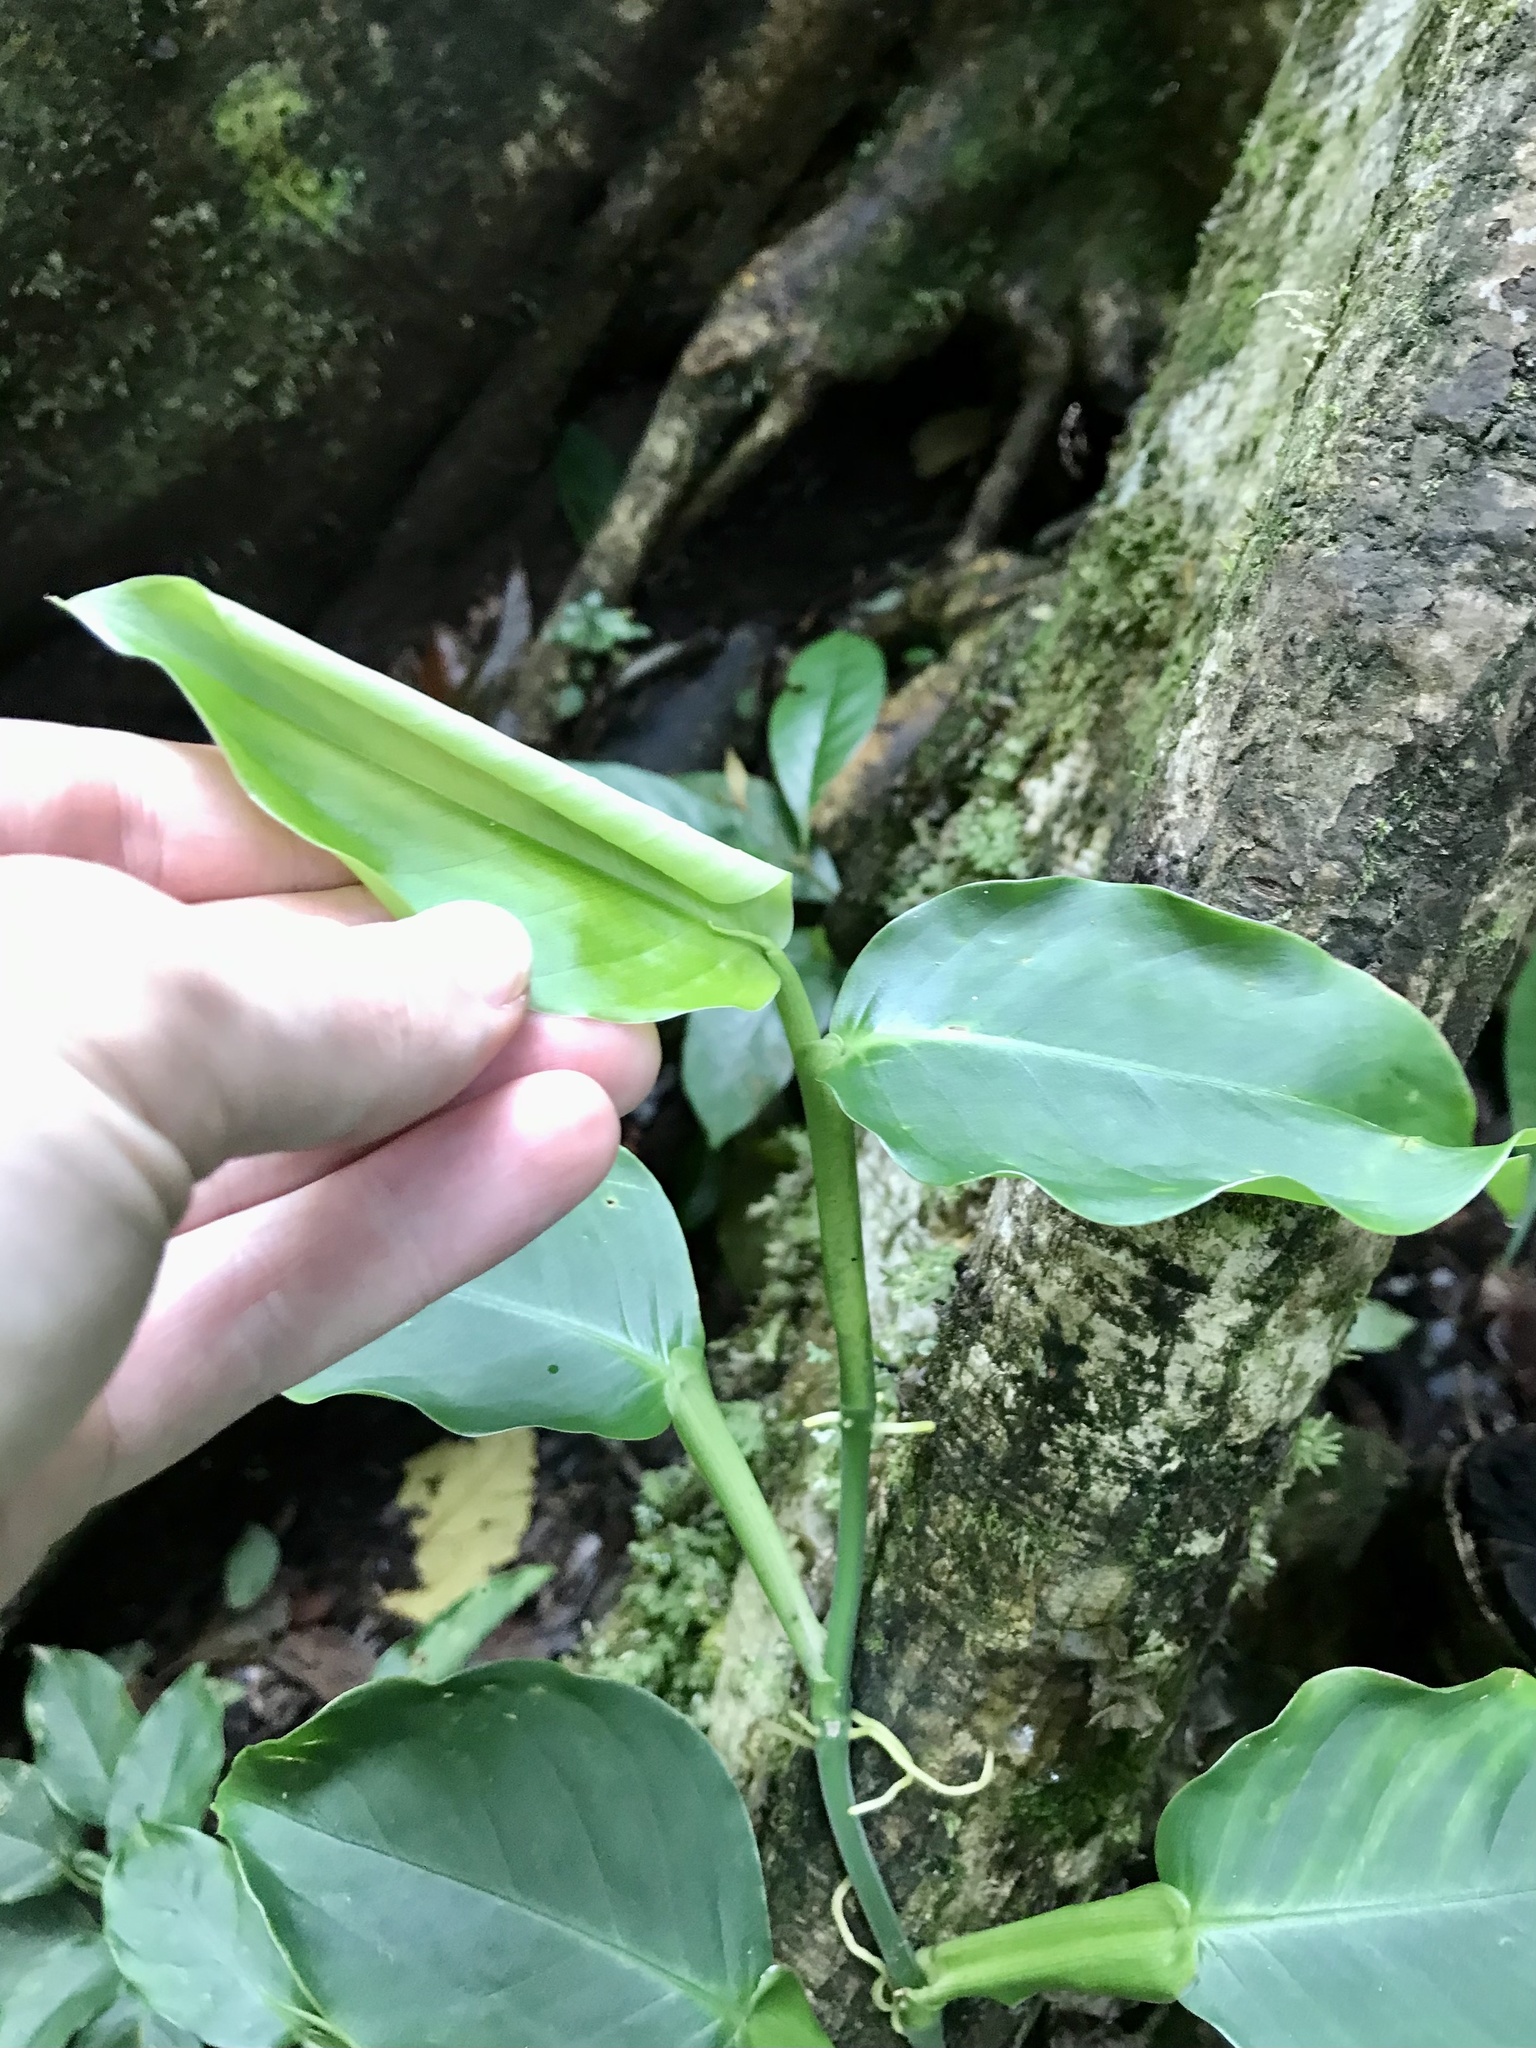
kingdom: Plantae
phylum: Tracheophyta
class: Liliopsida
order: Alismatales
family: Araceae
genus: Philodendron
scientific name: Philodendron aurantiifolium
